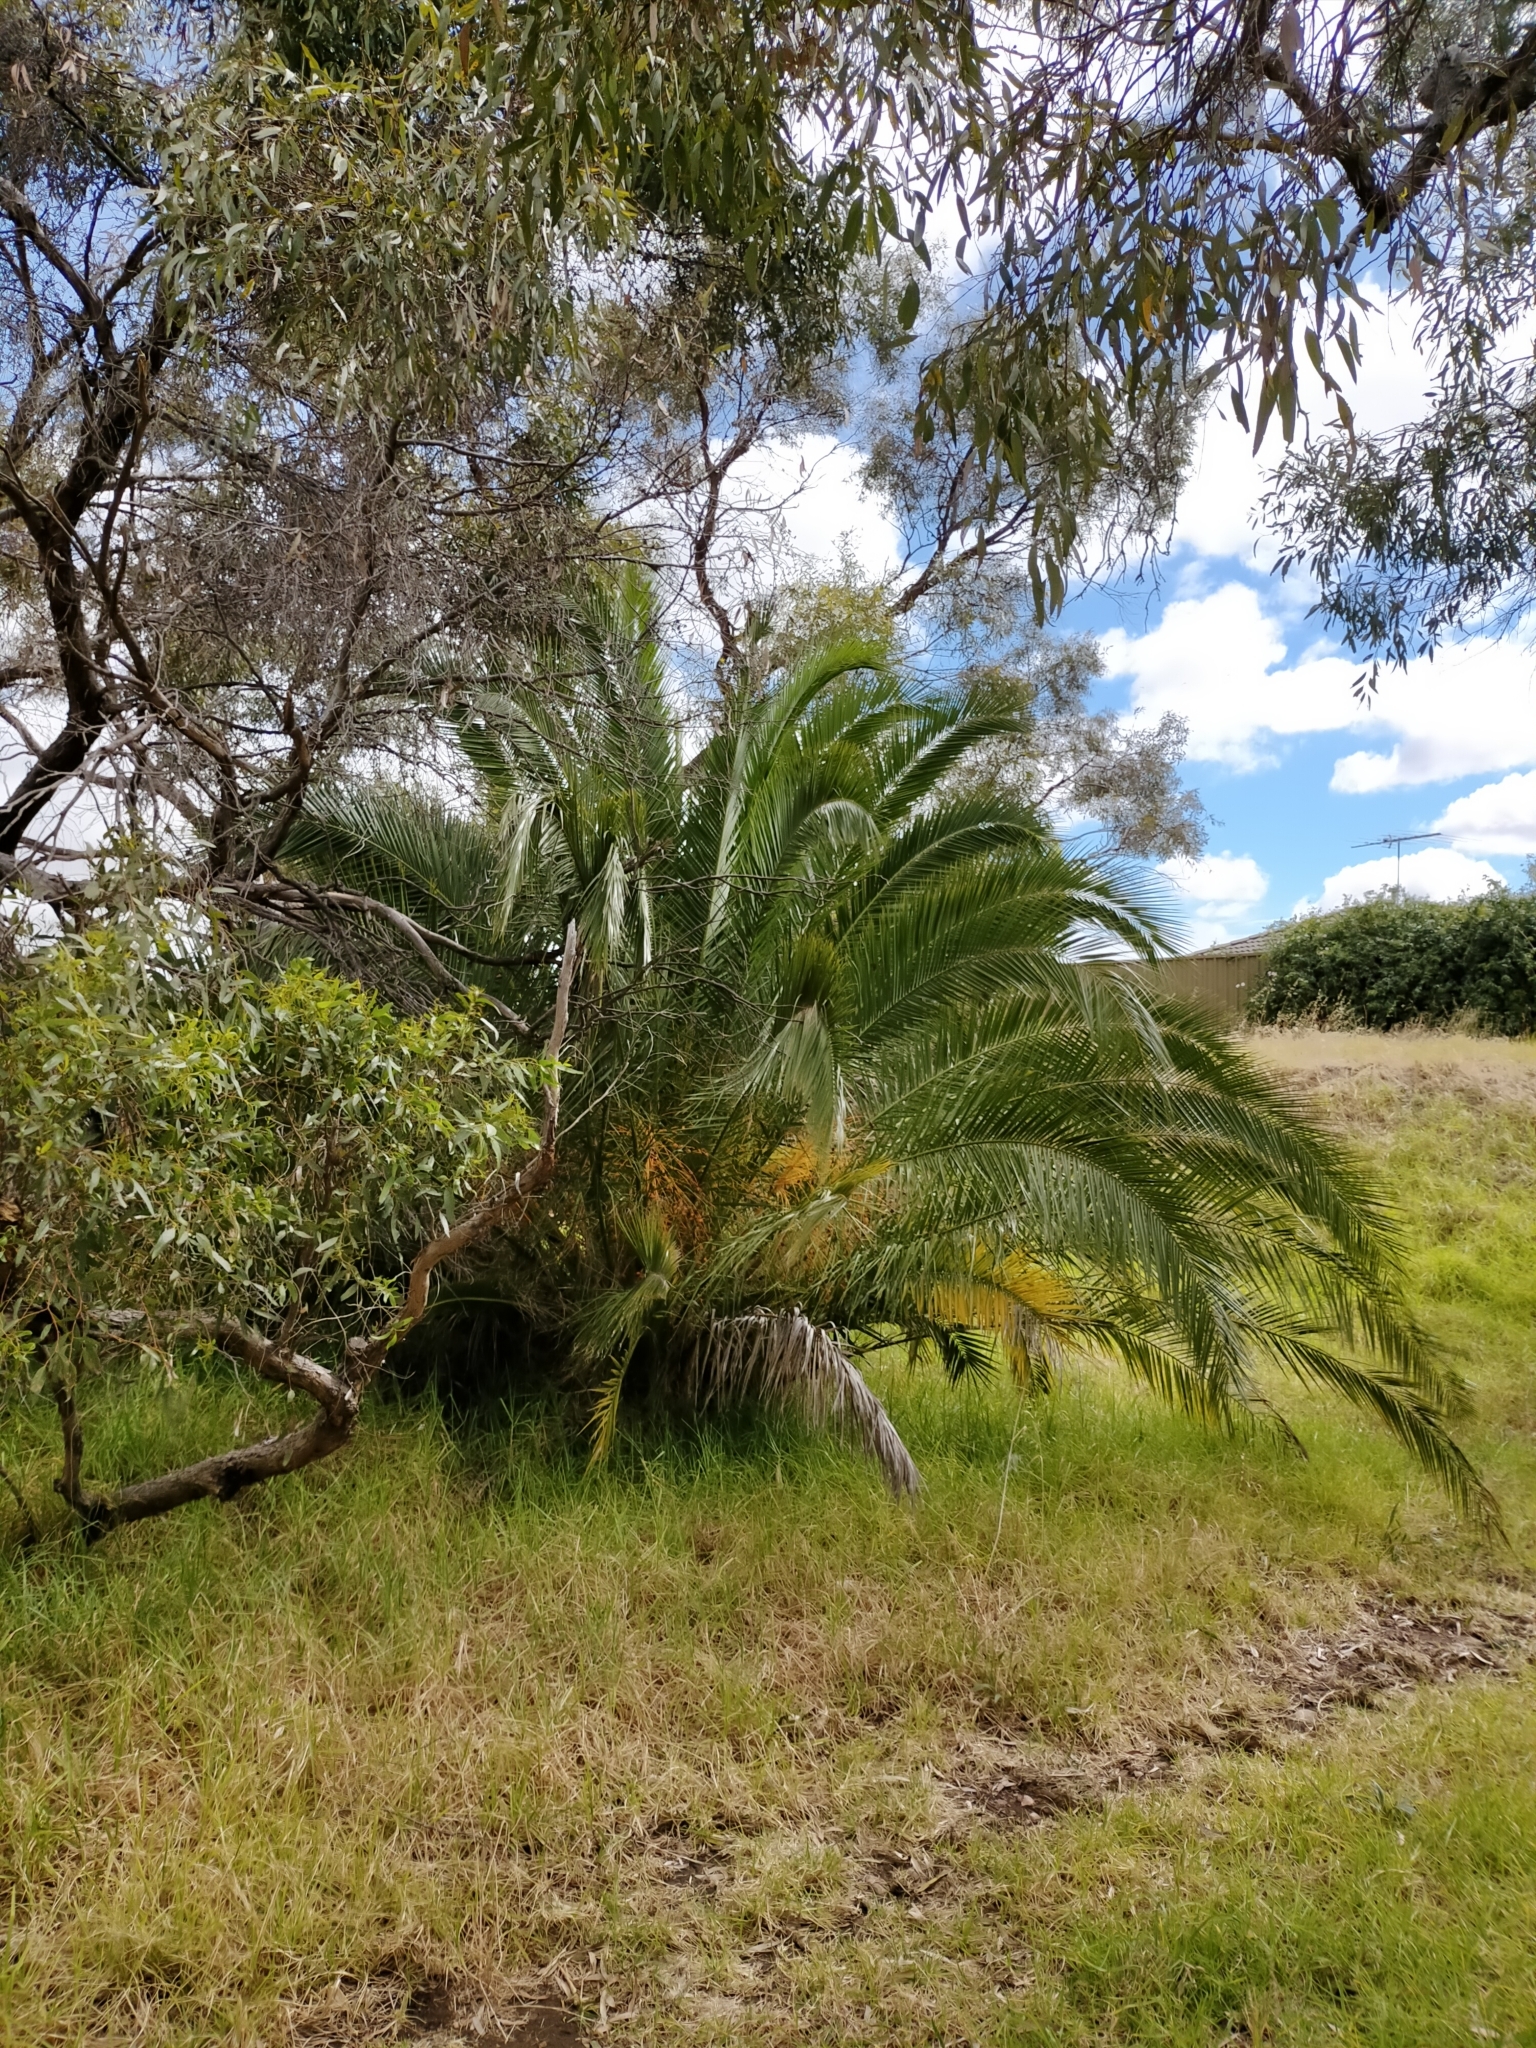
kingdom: Plantae
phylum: Tracheophyta
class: Liliopsida
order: Arecales
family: Arecaceae
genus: Phoenix
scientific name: Phoenix canariensis
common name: Canary island date palm
